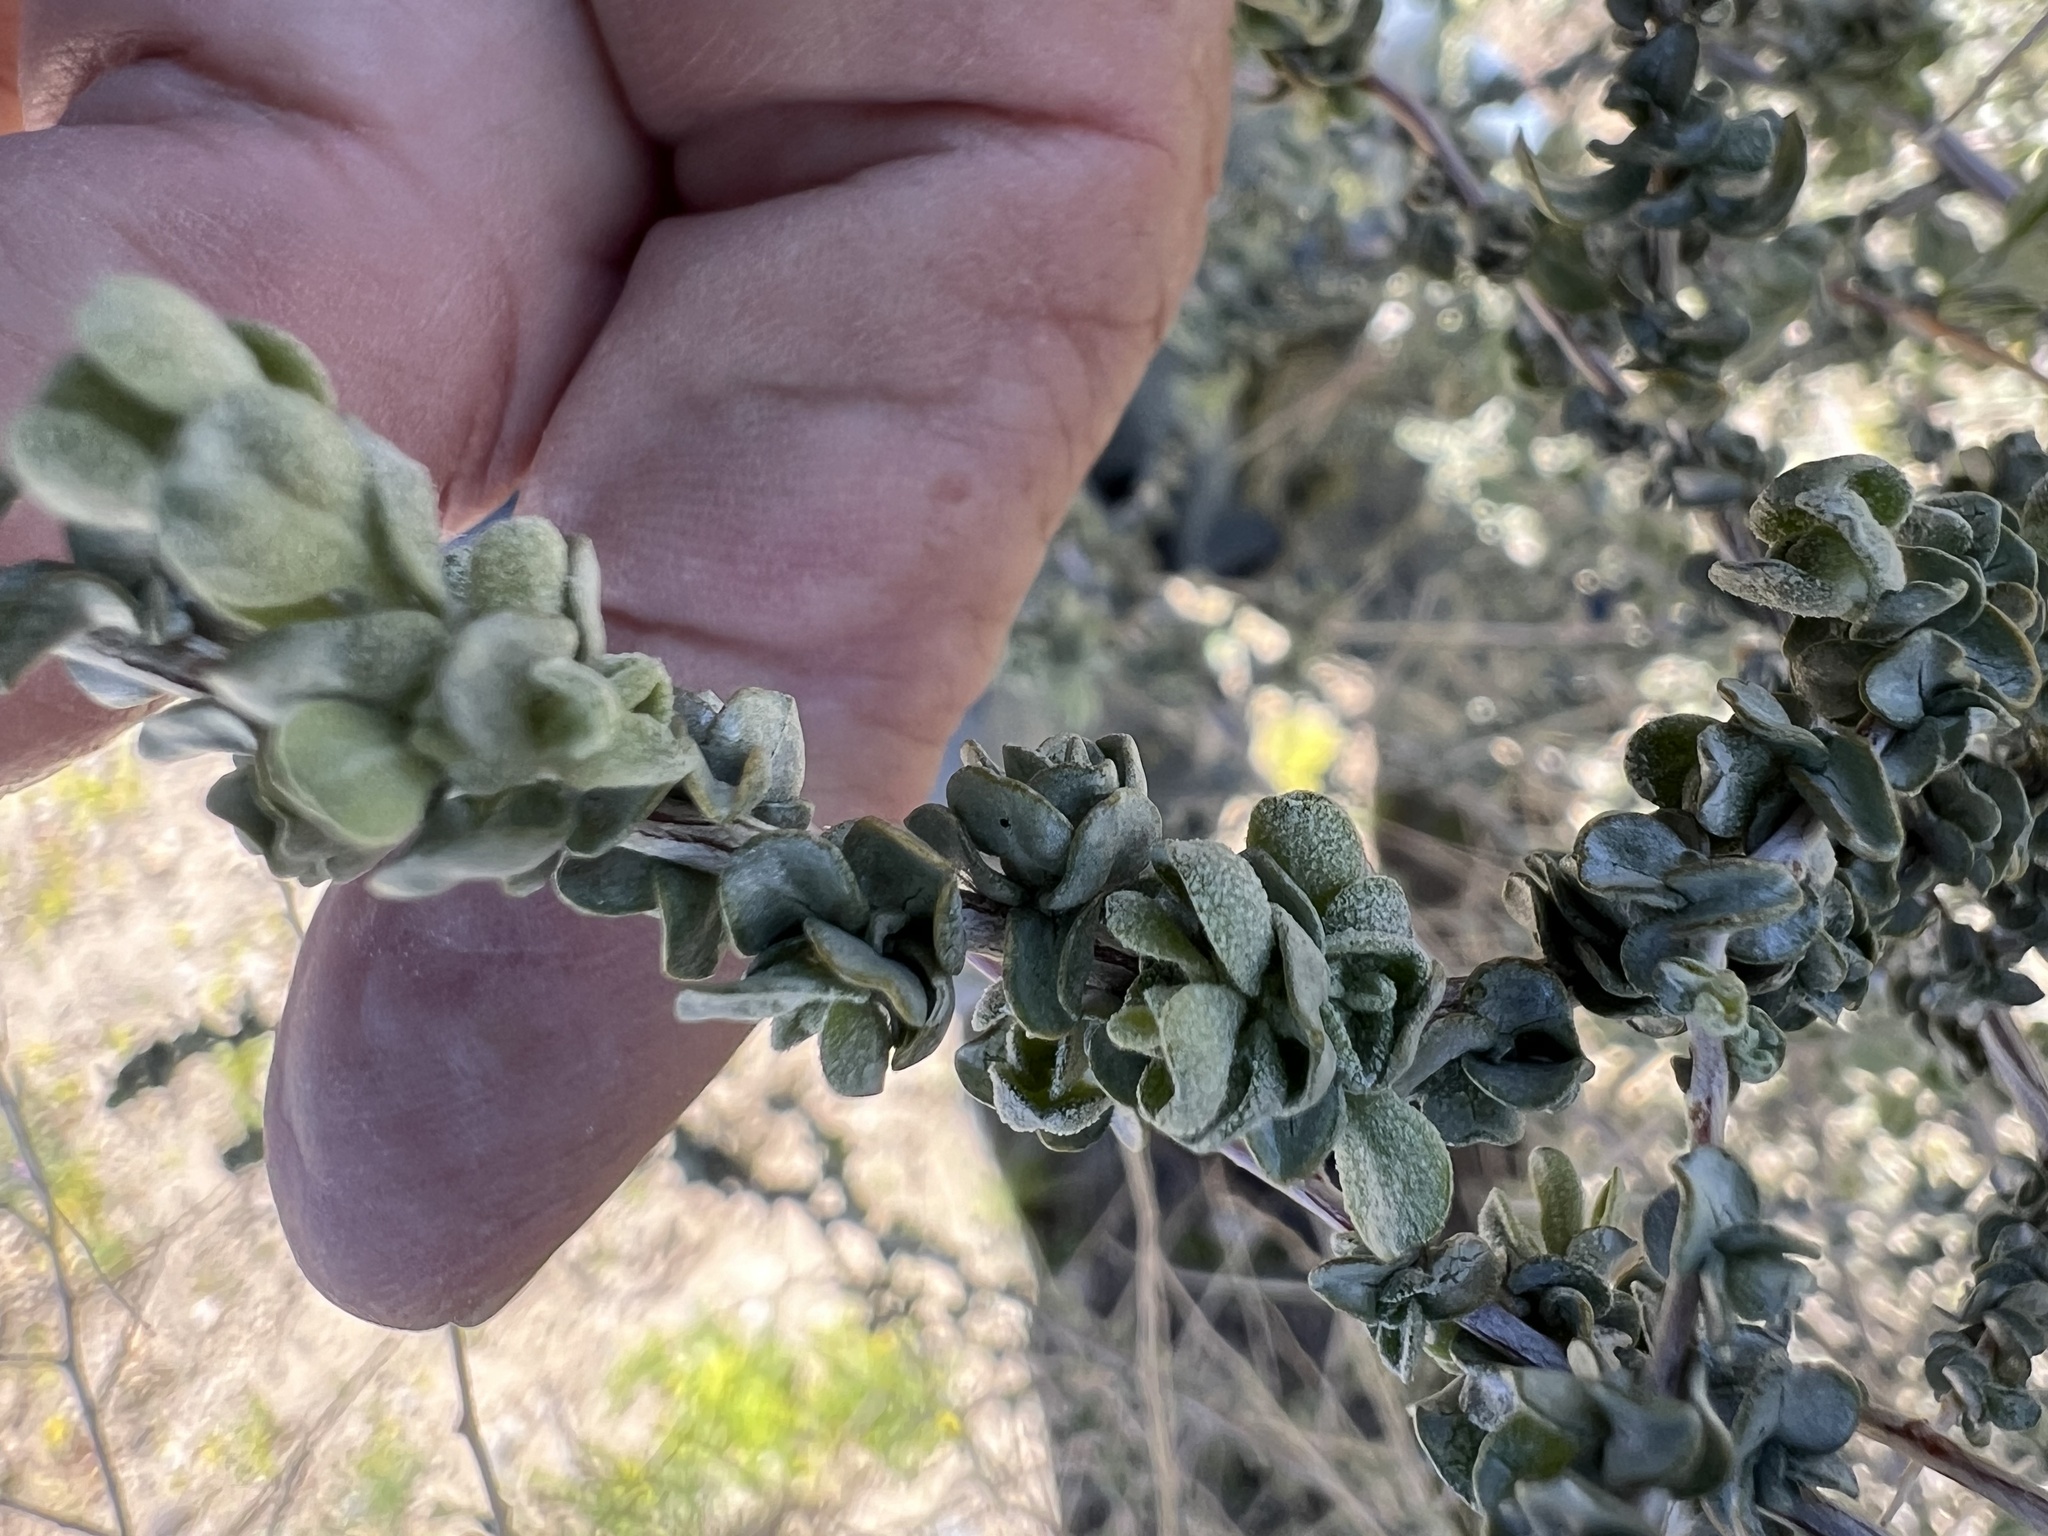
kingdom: Plantae
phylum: Tracheophyta
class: Magnoliopsida
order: Caryophyllales
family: Amaranthaceae
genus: Atriplex
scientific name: Atriplex polycarpa
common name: Desert saltbush
